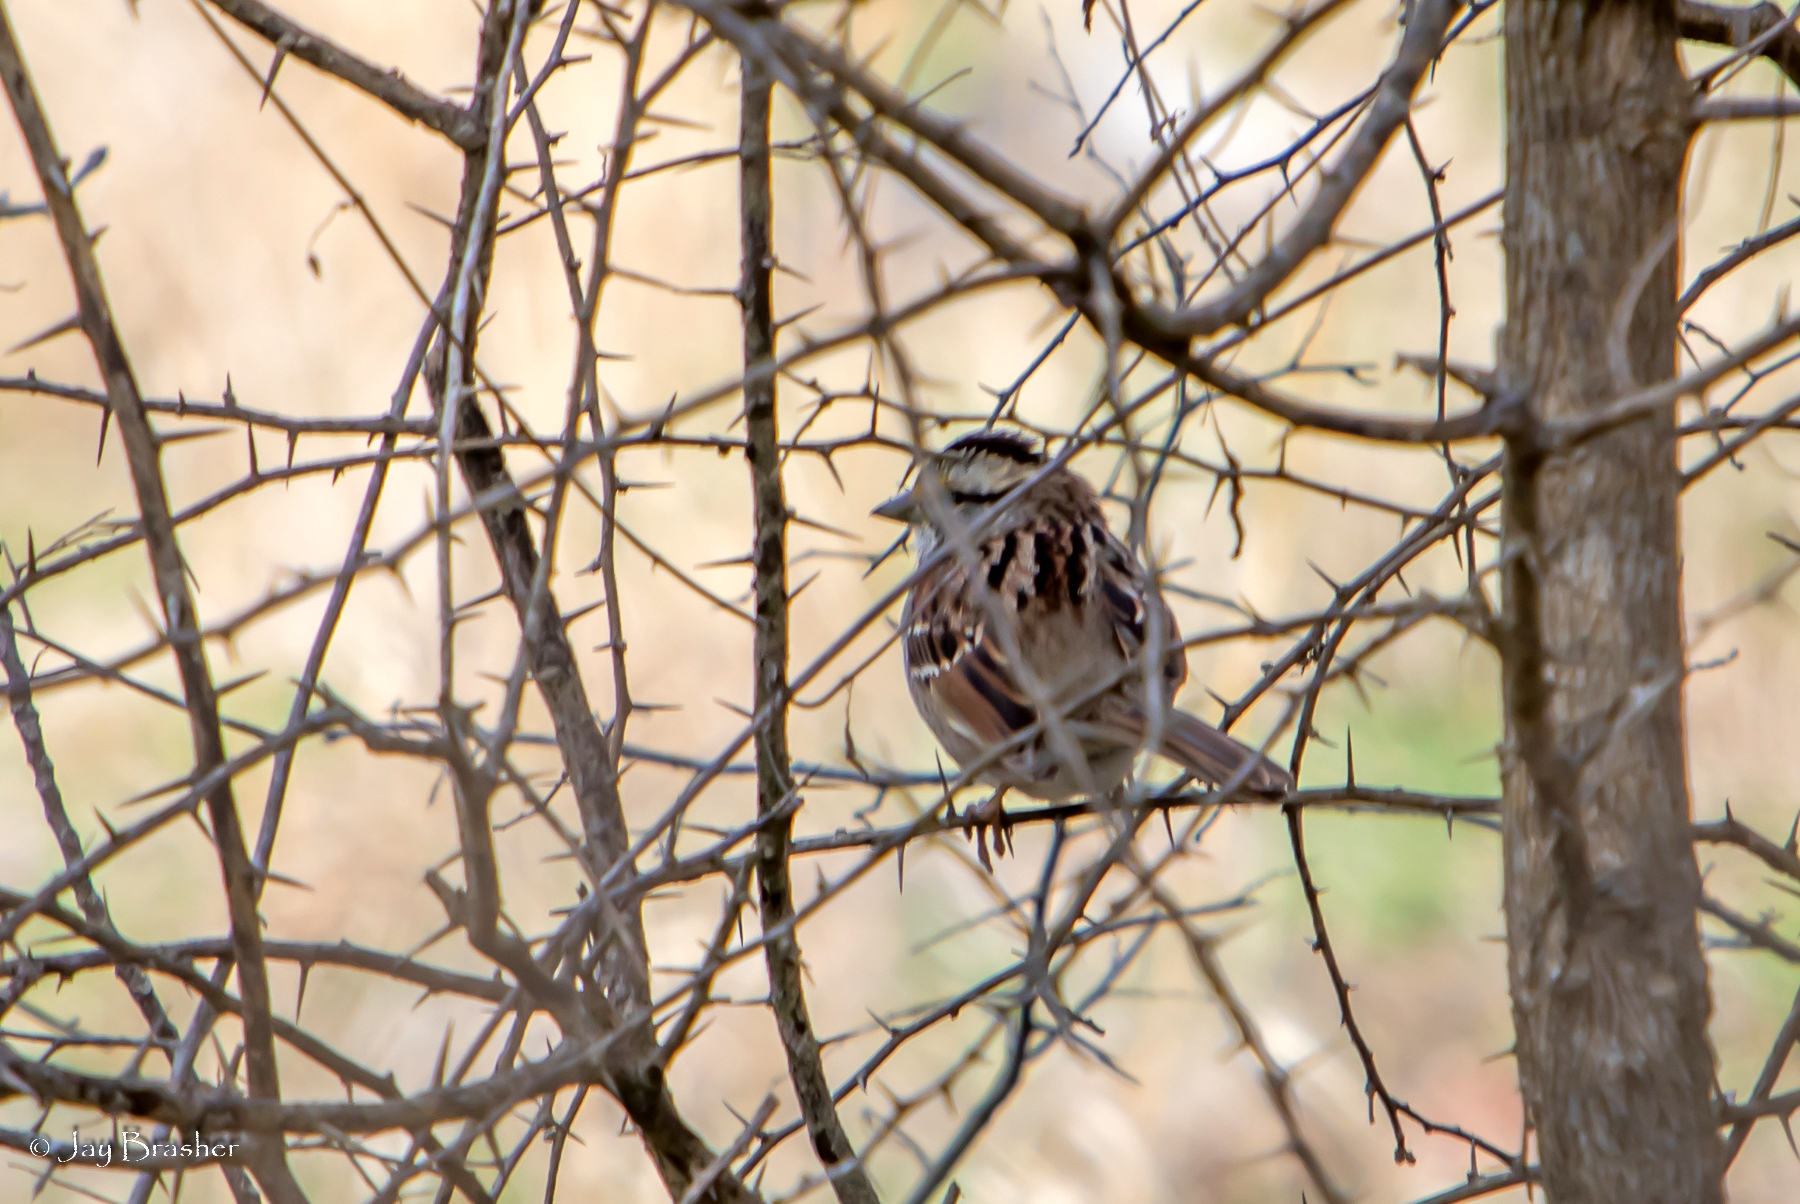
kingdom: Animalia
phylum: Chordata
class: Aves
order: Passeriformes
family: Passerellidae
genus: Zonotrichia
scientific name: Zonotrichia albicollis
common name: White-throated sparrow
